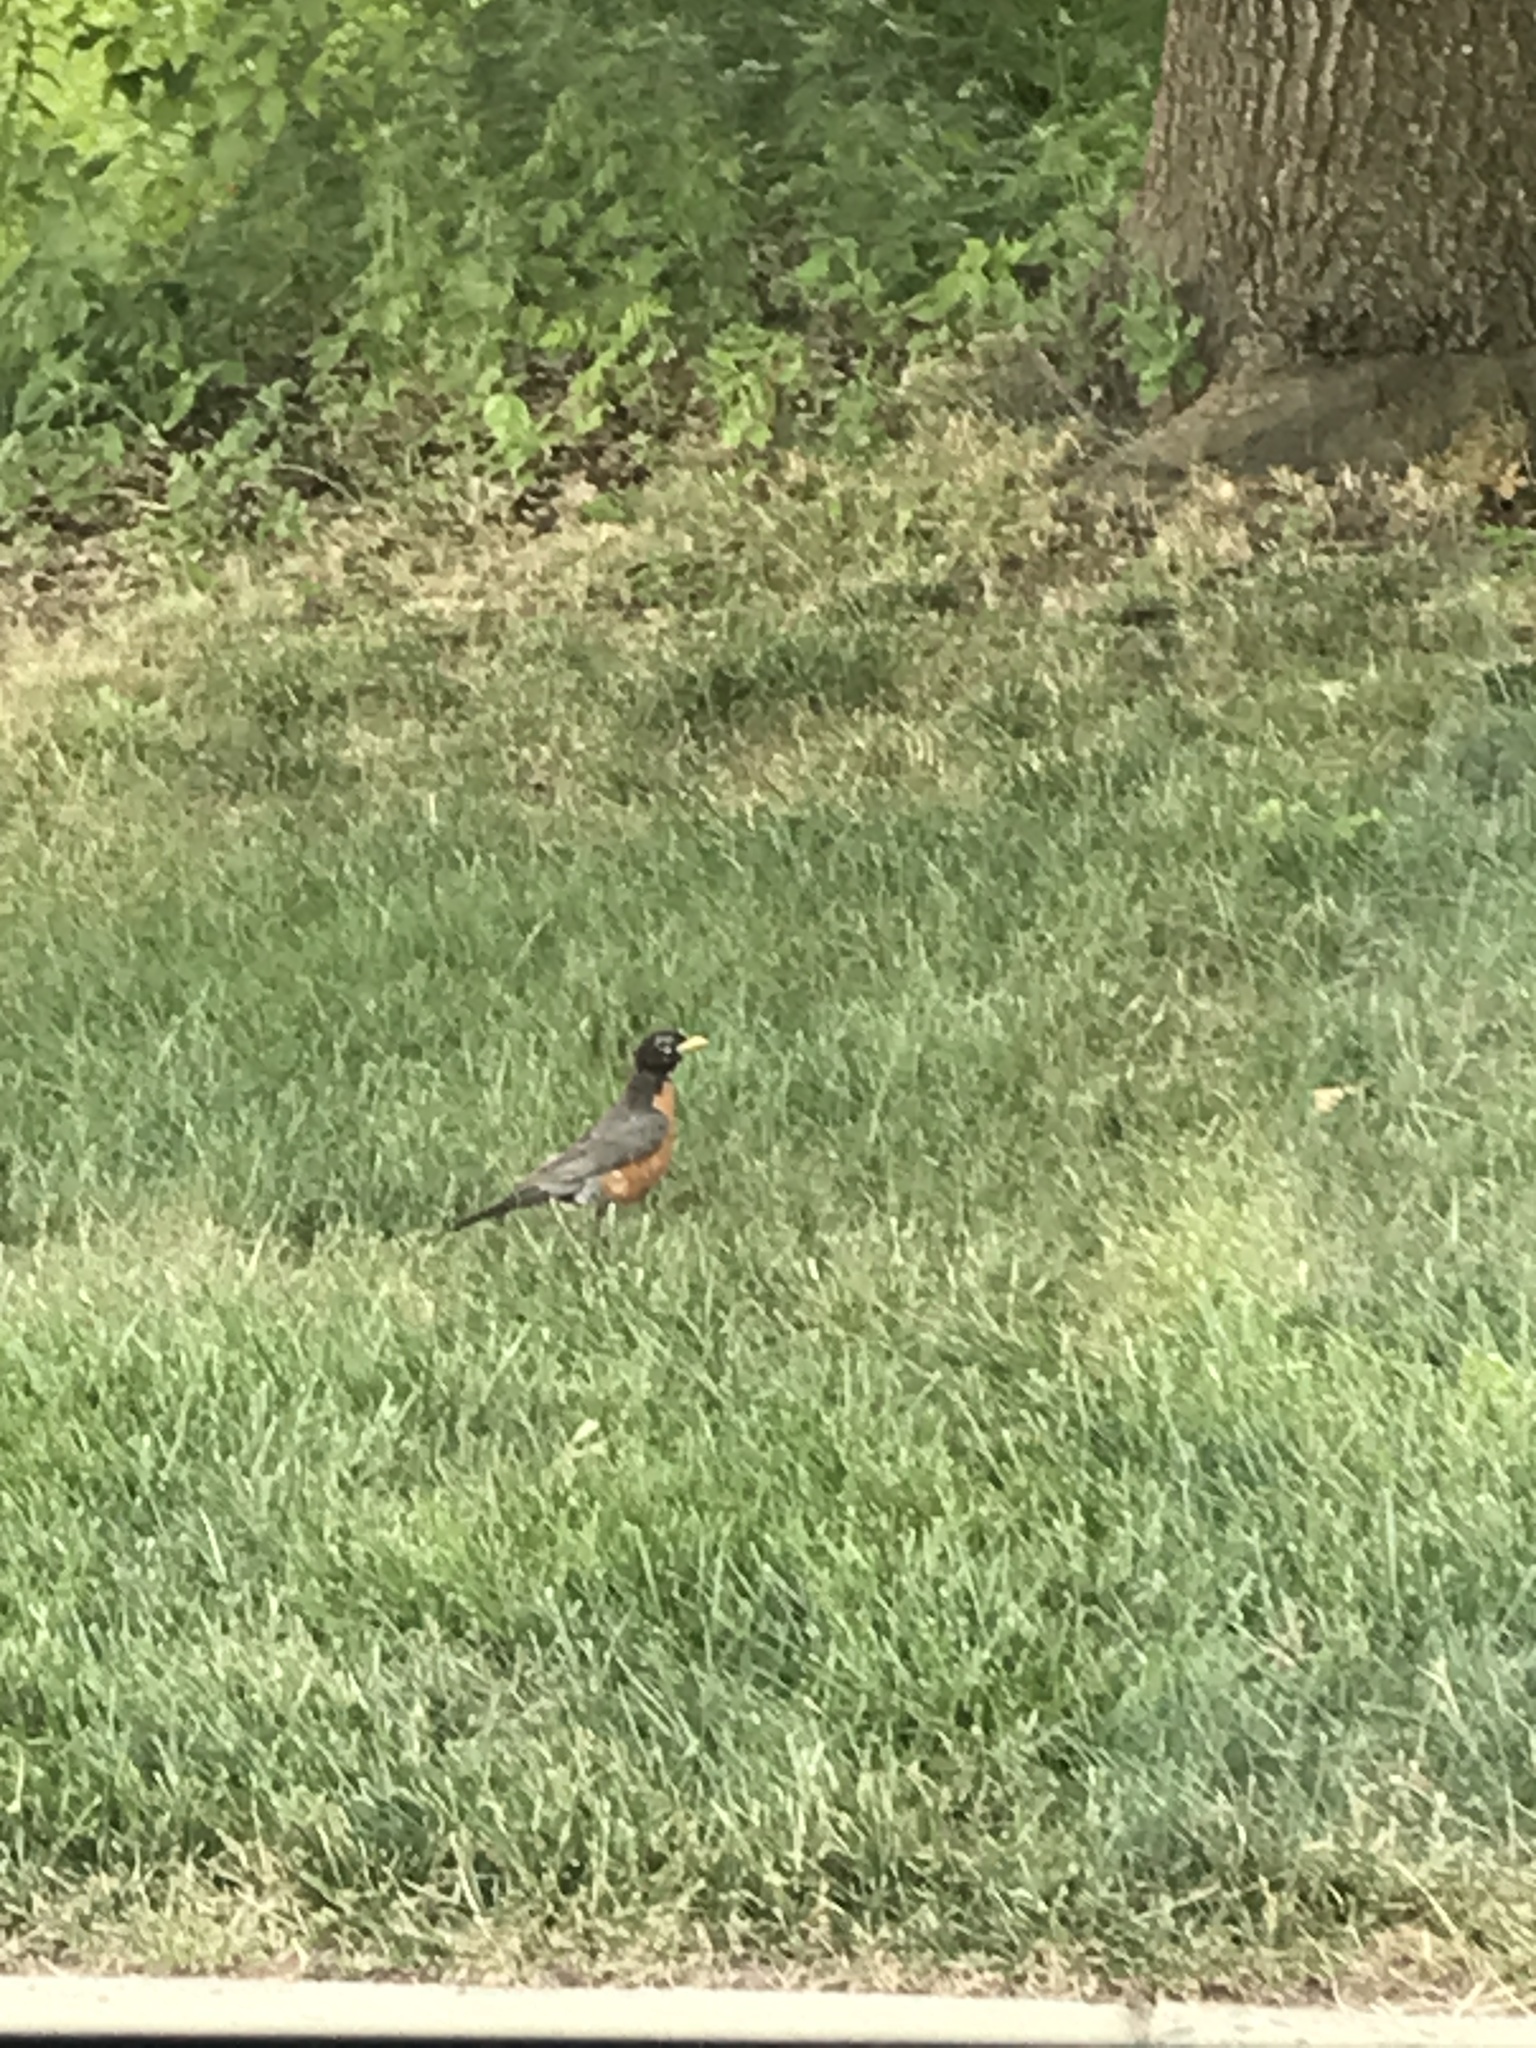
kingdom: Animalia
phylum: Chordata
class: Aves
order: Passeriformes
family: Turdidae
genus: Turdus
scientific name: Turdus migratorius
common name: American robin
